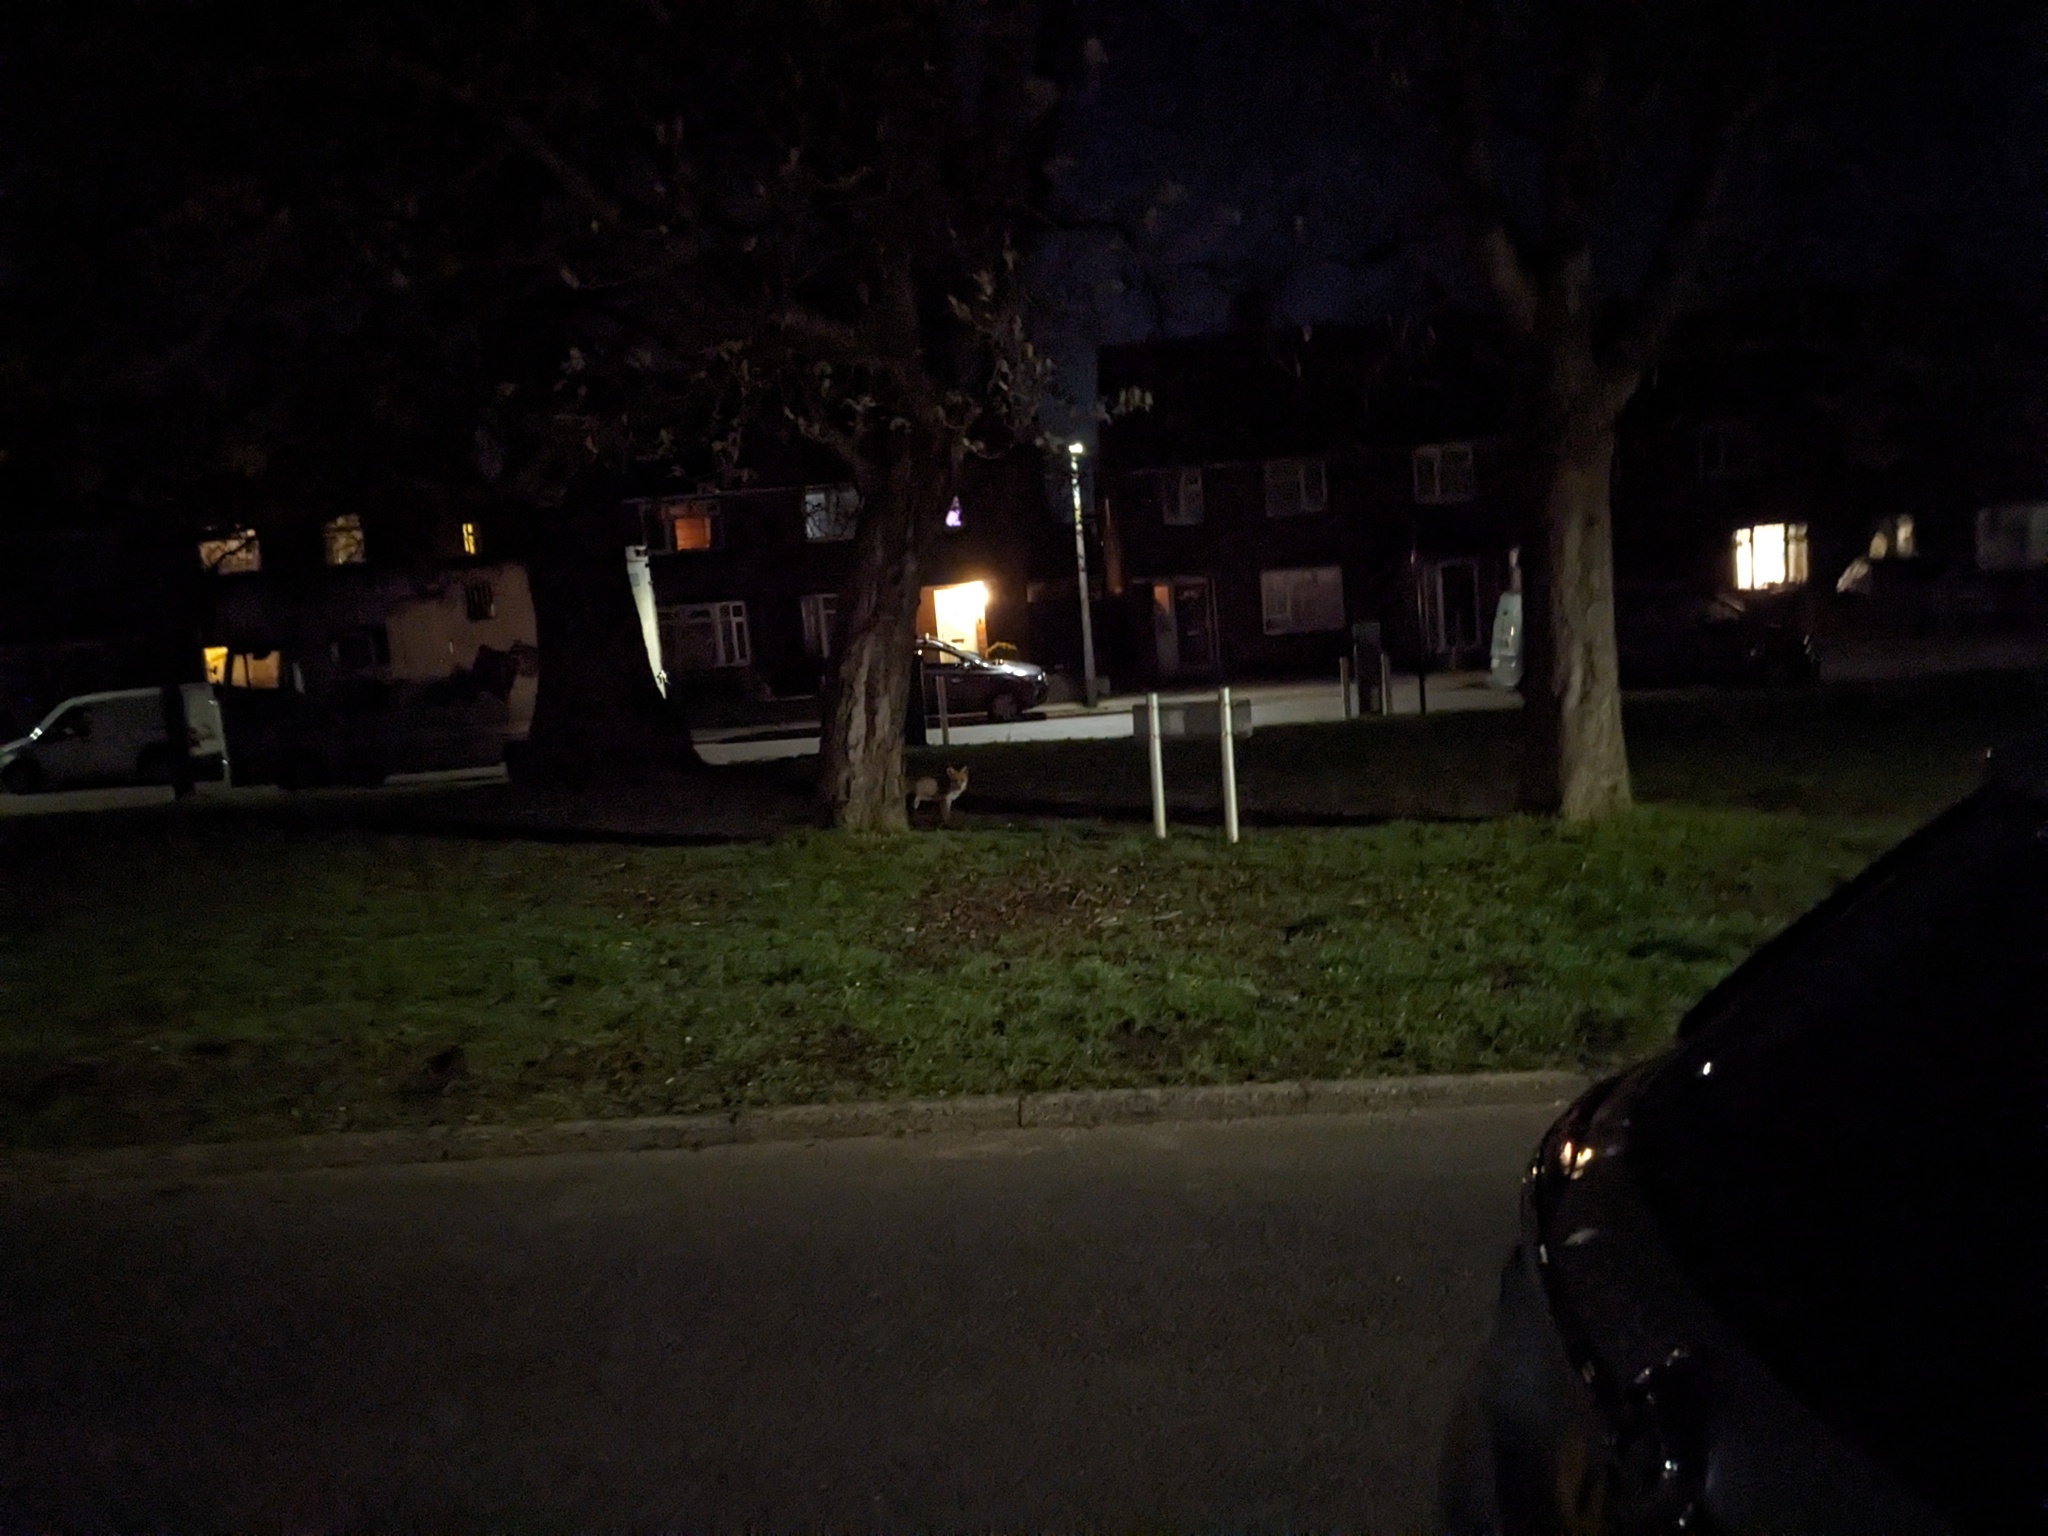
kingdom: Animalia
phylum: Chordata
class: Mammalia
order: Carnivora
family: Canidae
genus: Vulpes
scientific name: Vulpes vulpes
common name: Red fox
